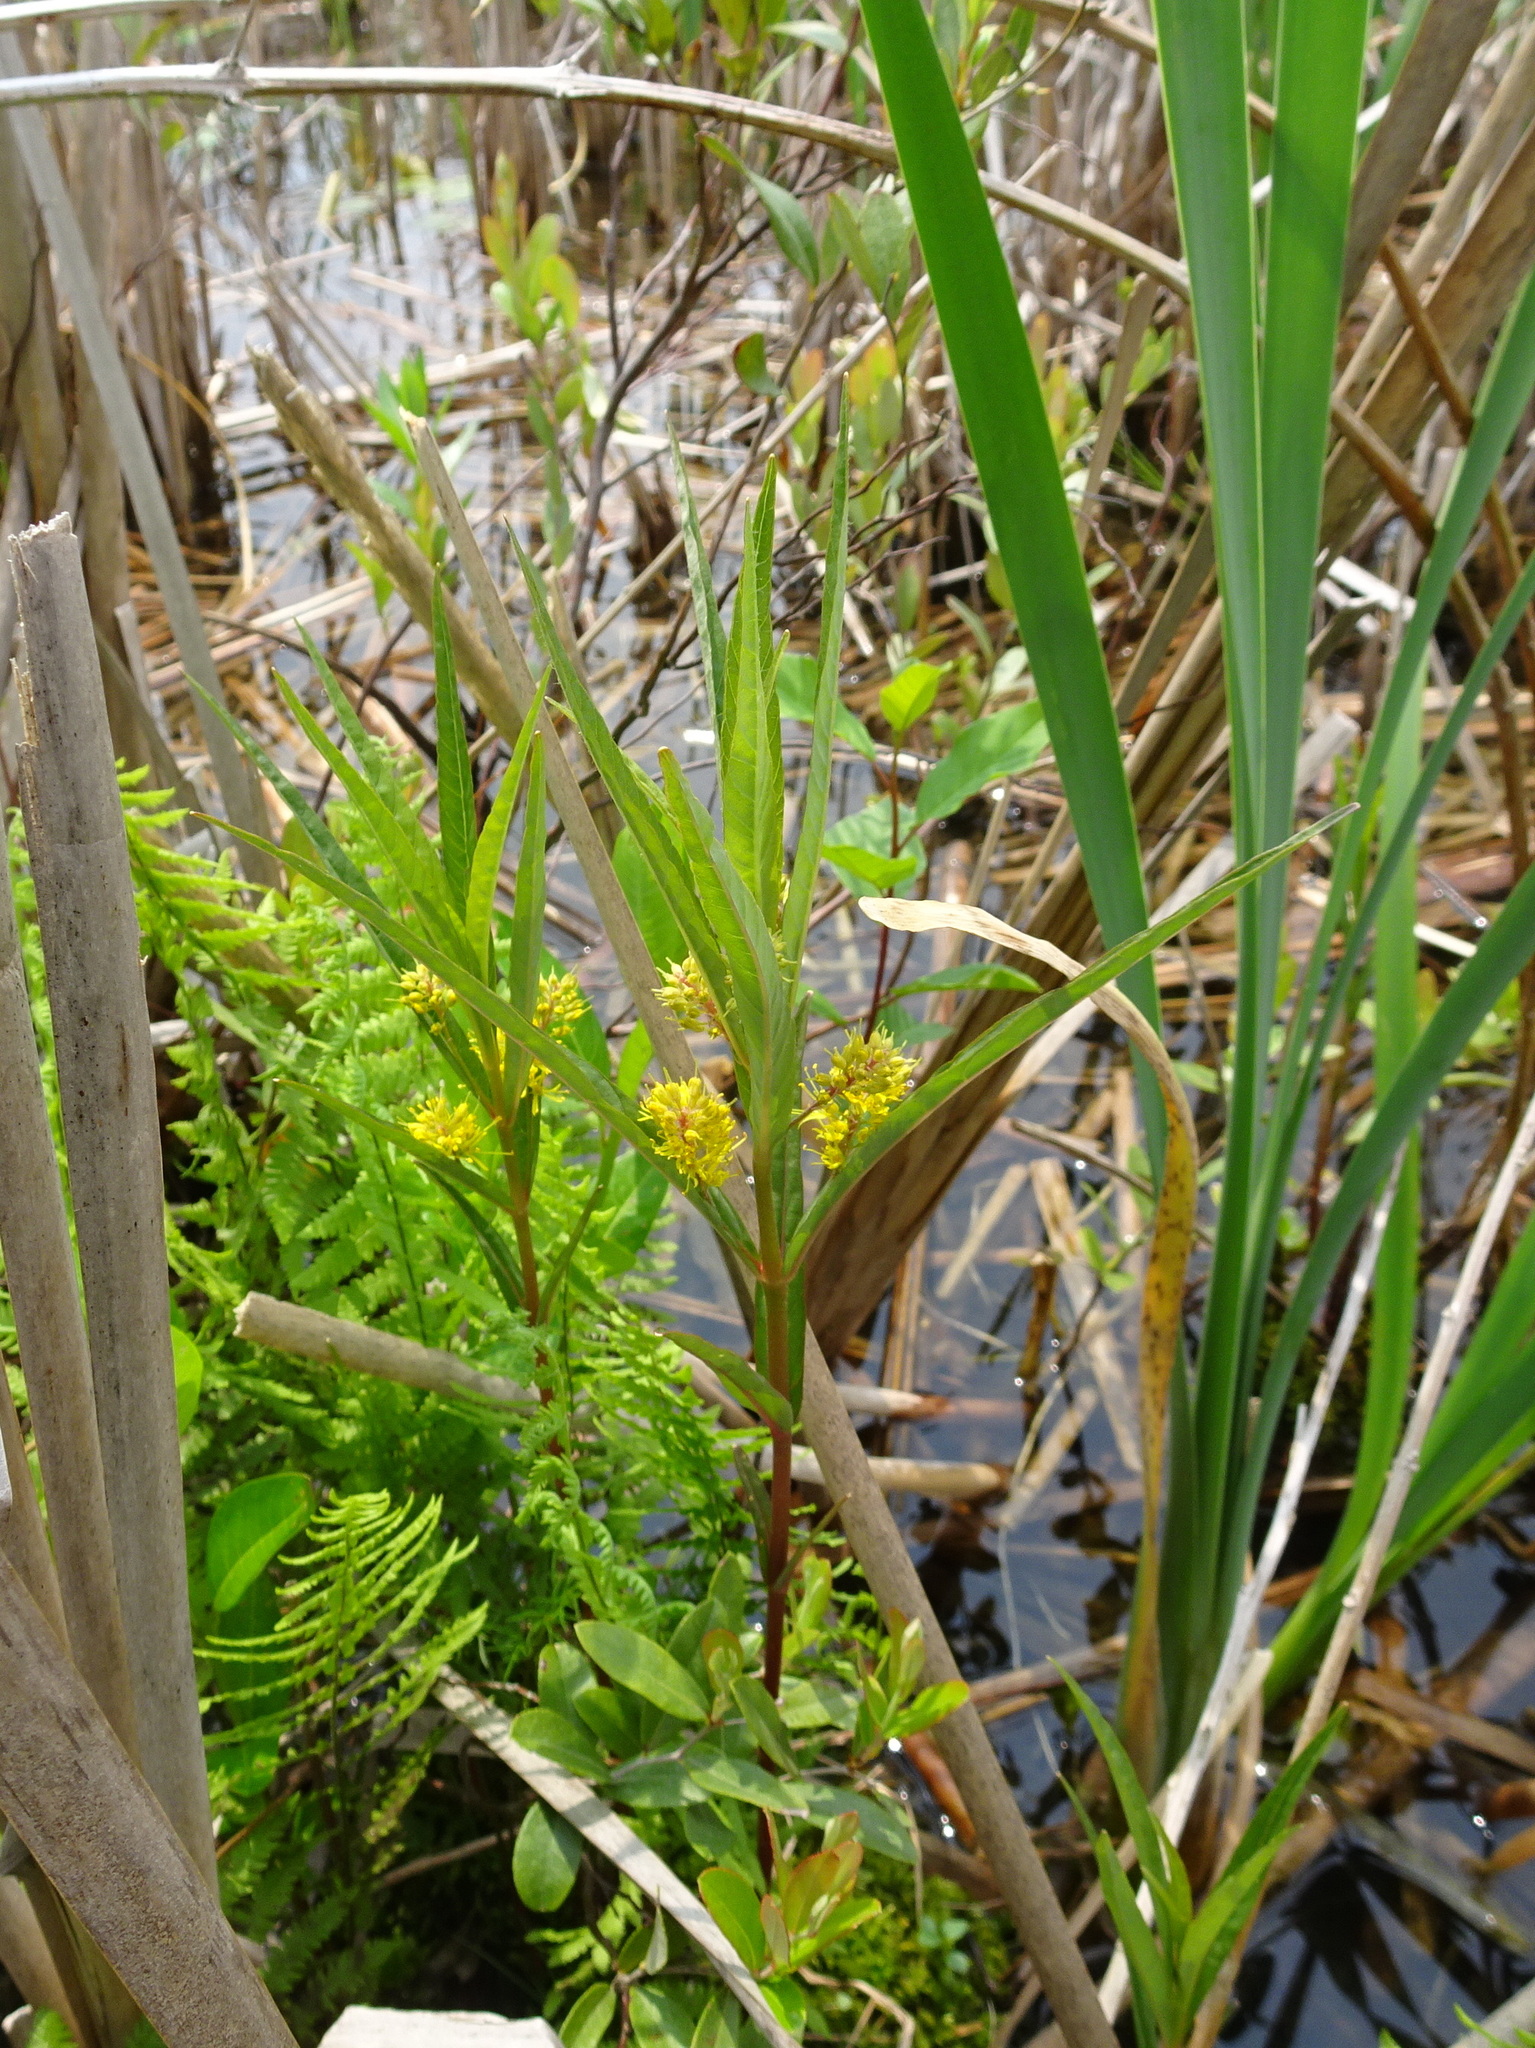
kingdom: Plantae
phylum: Tracheophyta
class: Magnoliopsida
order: Ericales
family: Primulaceae
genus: Lysimachia
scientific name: Lysimachia thyrsiflora
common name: Tufted loosestrife
